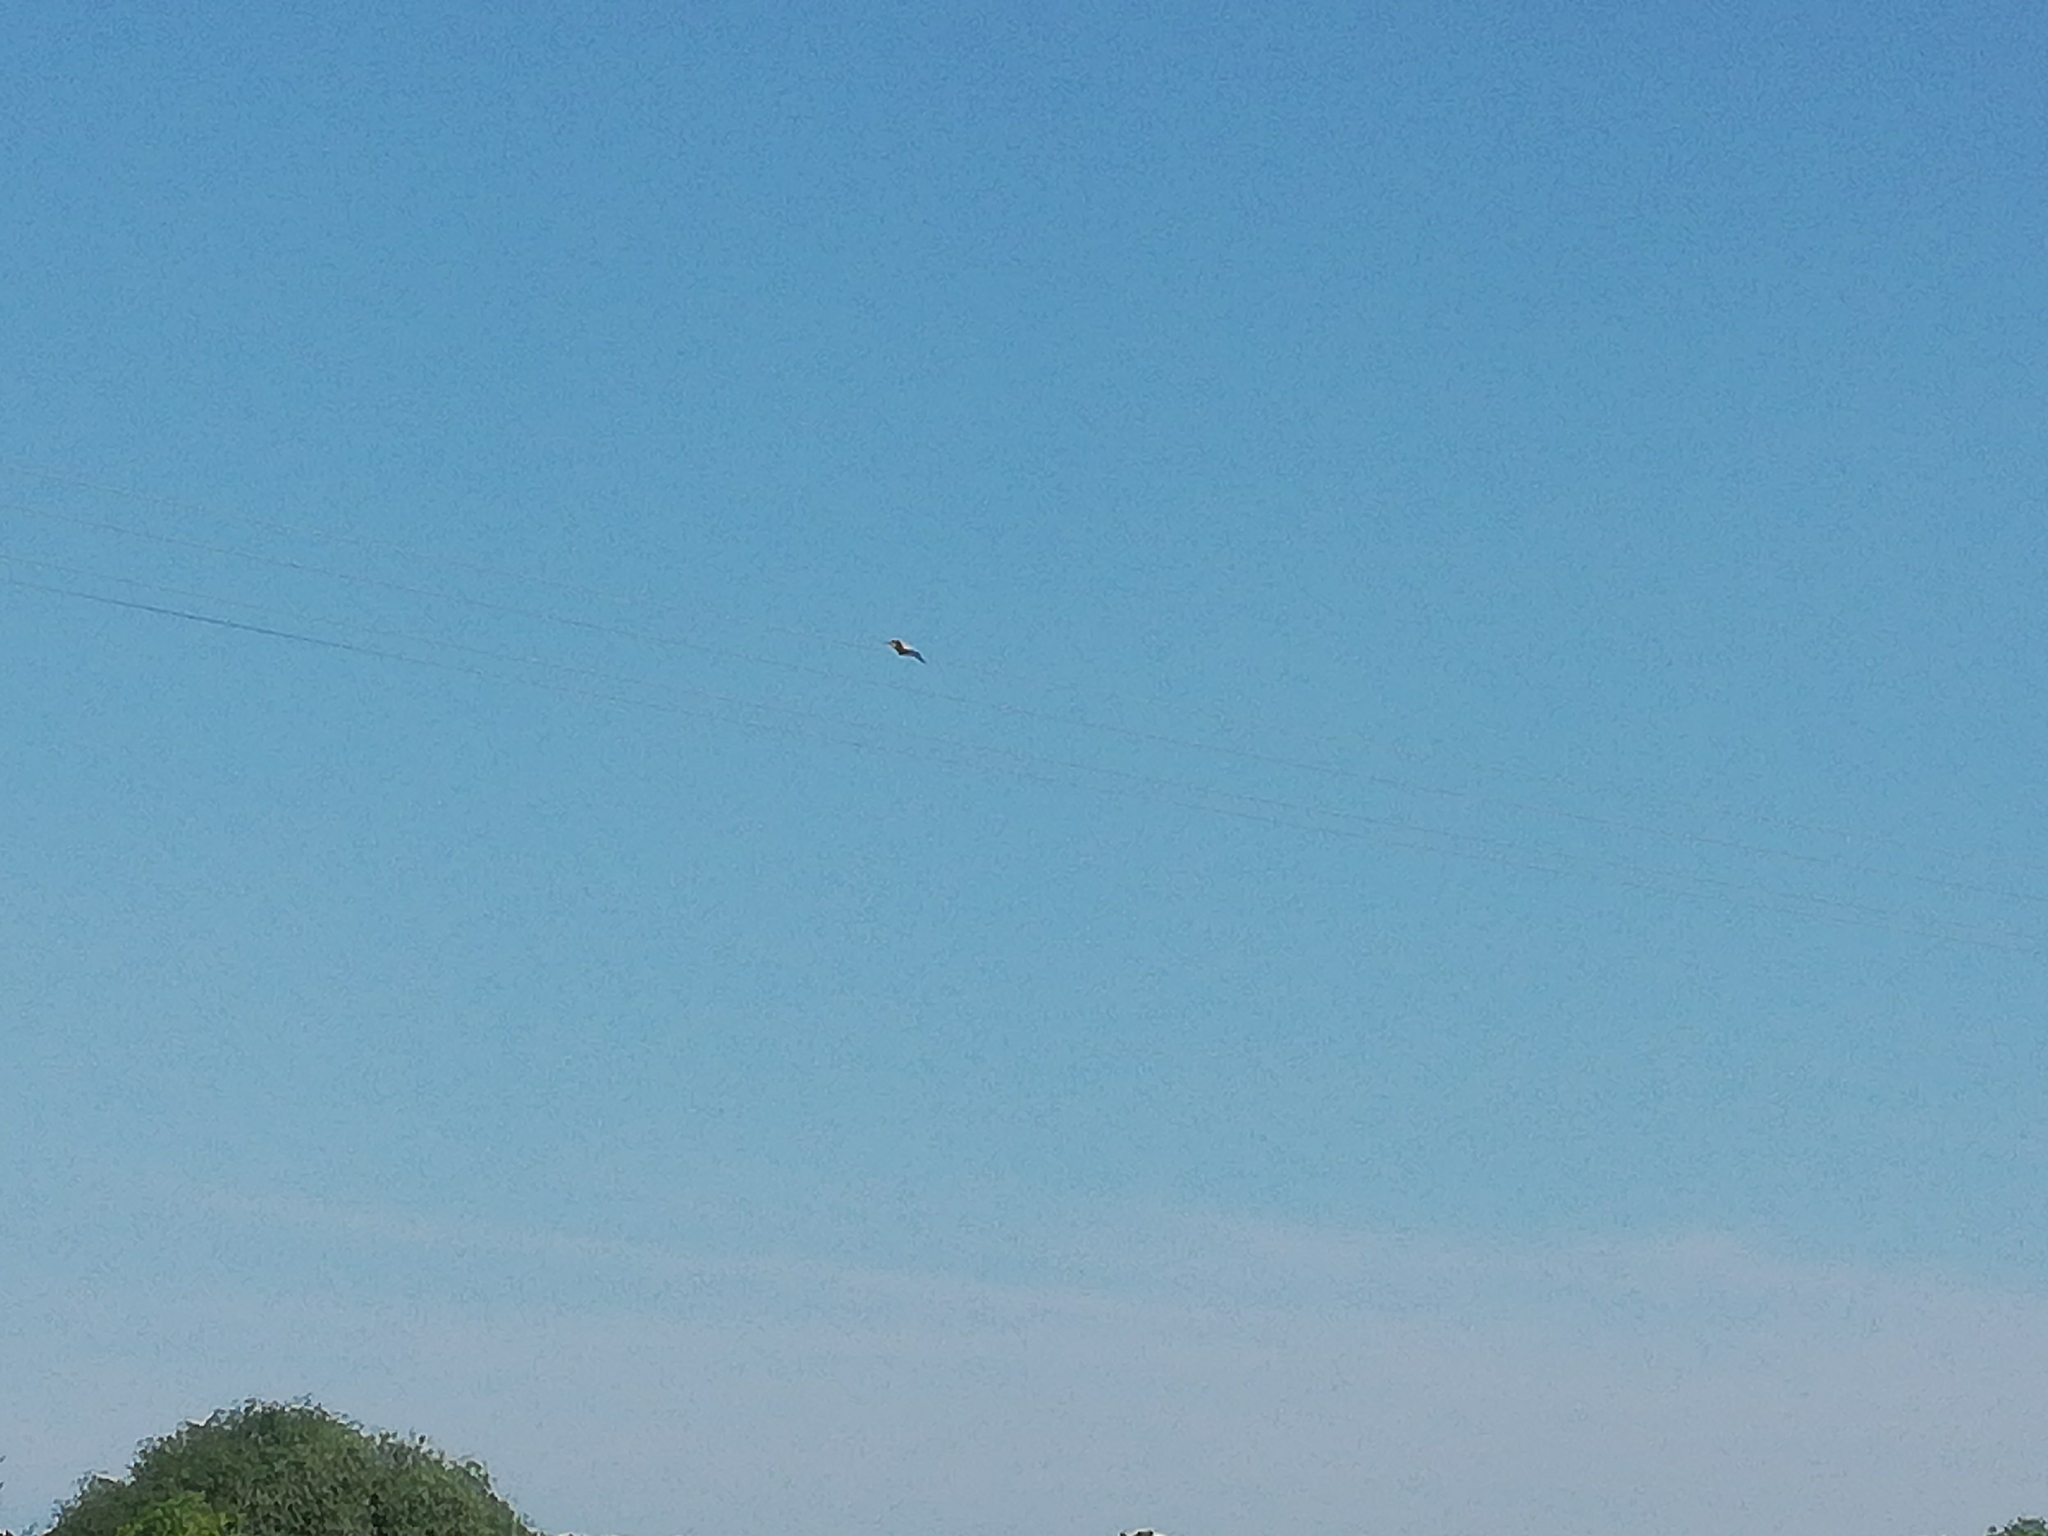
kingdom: Animalia
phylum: Chordata
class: Aves
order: Coraciiformes
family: Meropidae
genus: Merops
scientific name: Merops apiaster
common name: European bee-eater
